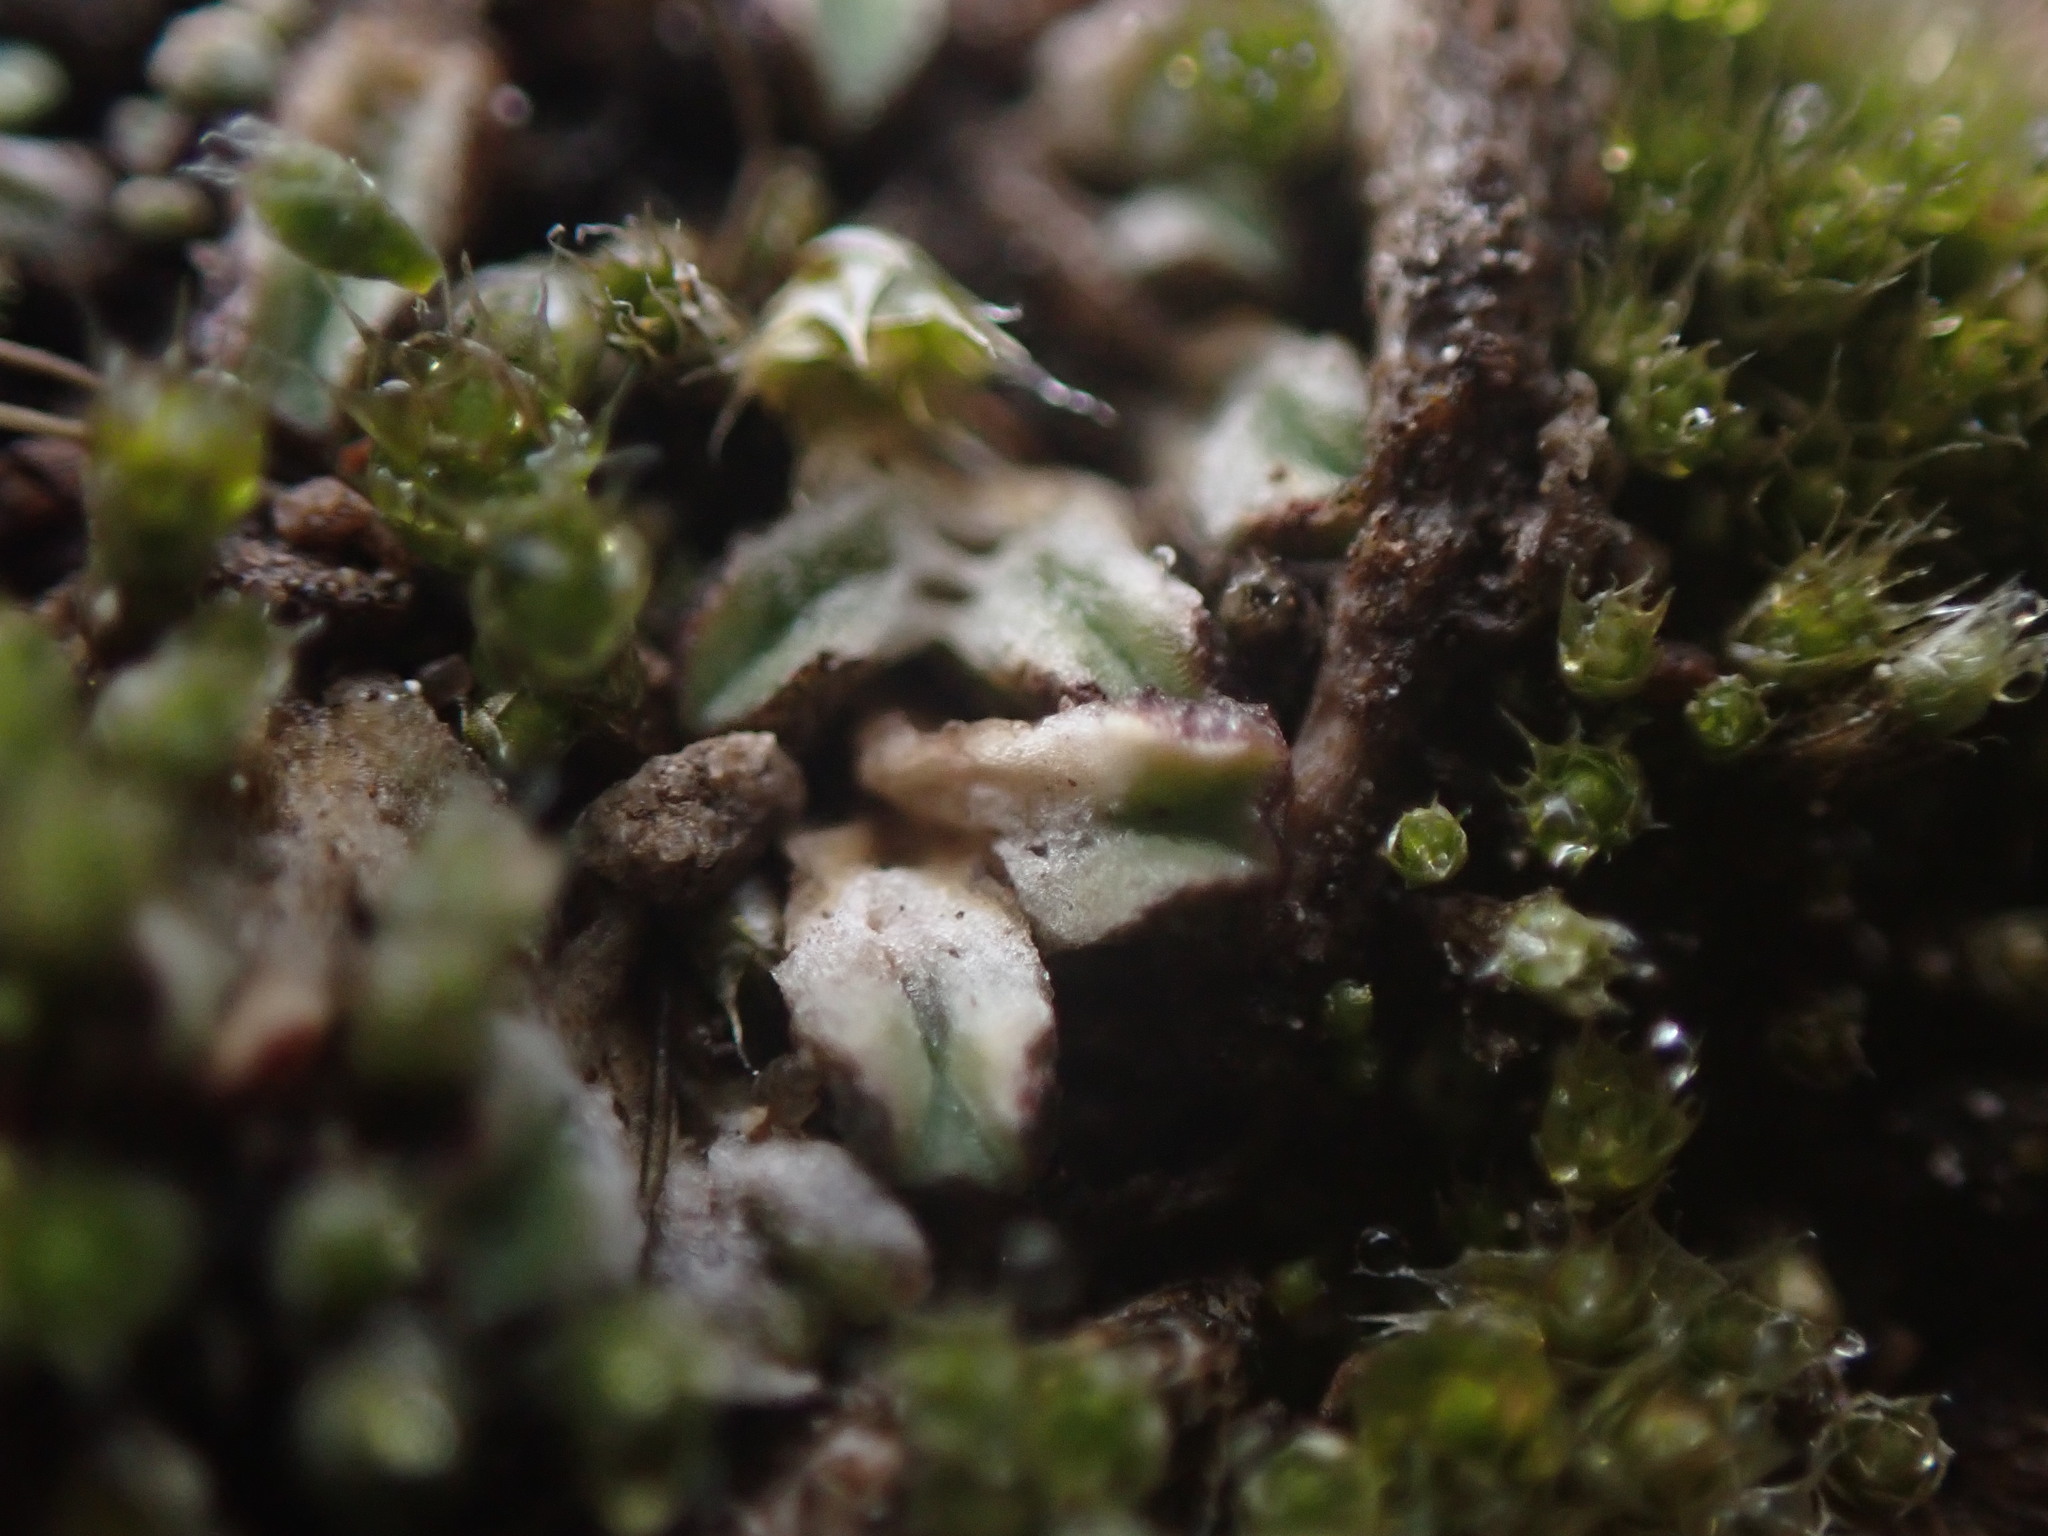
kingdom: Plantae
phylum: Marchantiophyta
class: Marchantiopsida
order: Marchantiales
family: Ricciaceae
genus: Riccia
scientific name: Riccia sorocarpa
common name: Common crystalwort
